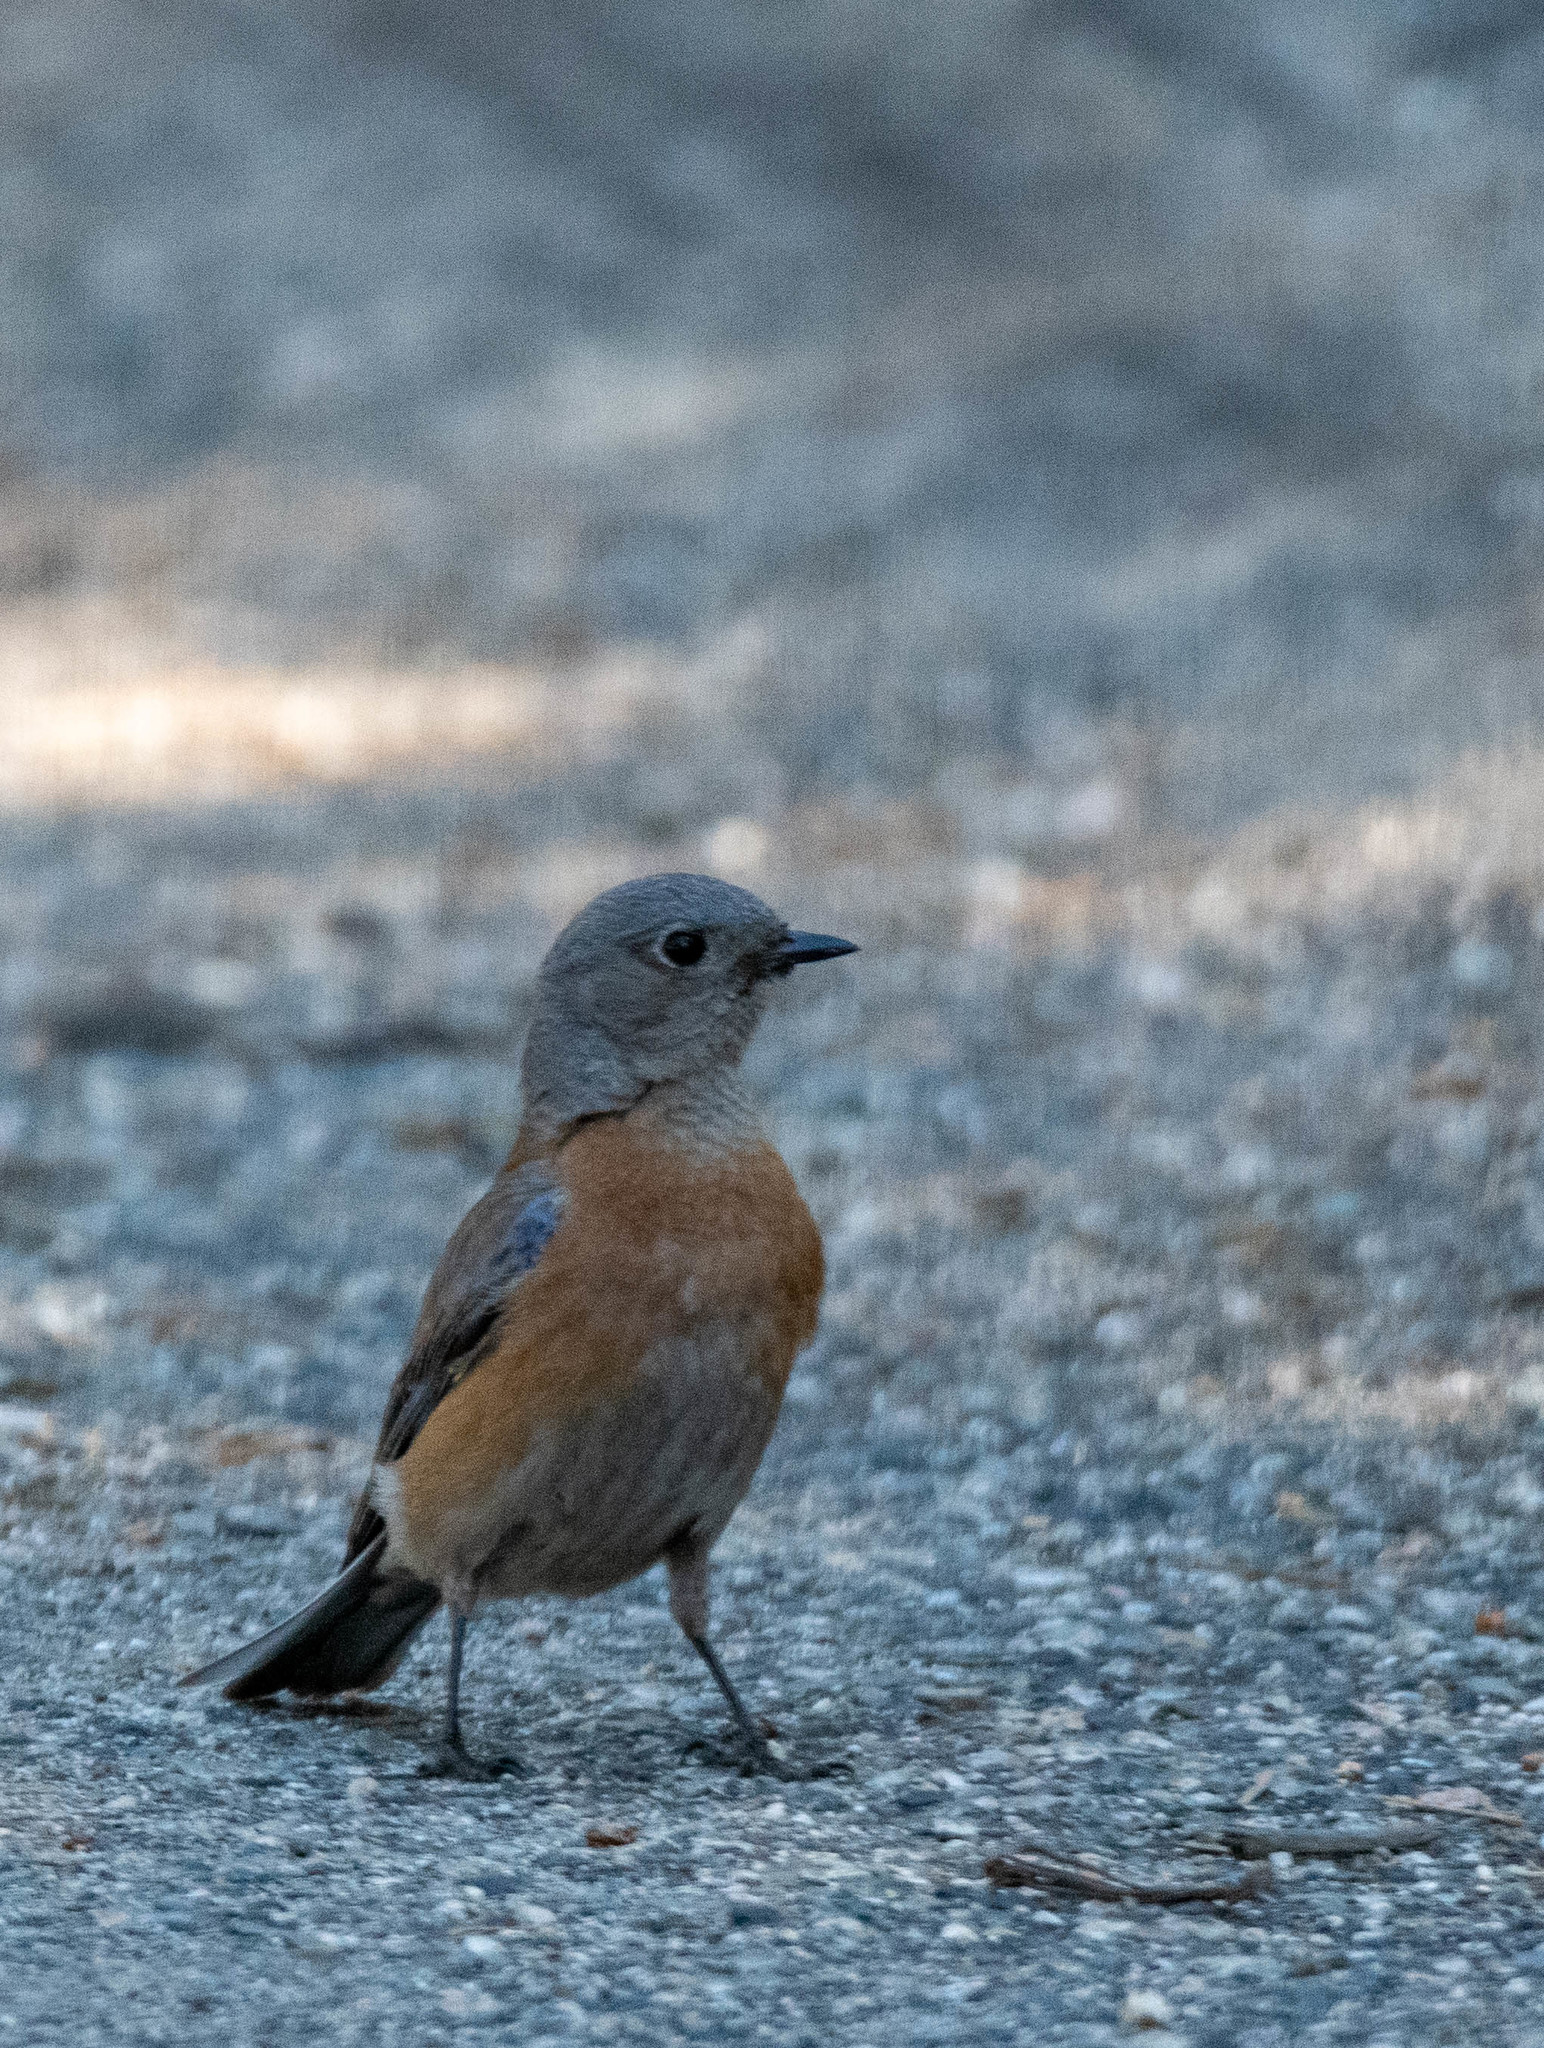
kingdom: Animalia
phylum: Chordata
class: Aves
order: Passeriformes
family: Turdidae
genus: Sialia
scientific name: Sialia mexicana
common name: Western bluebird
